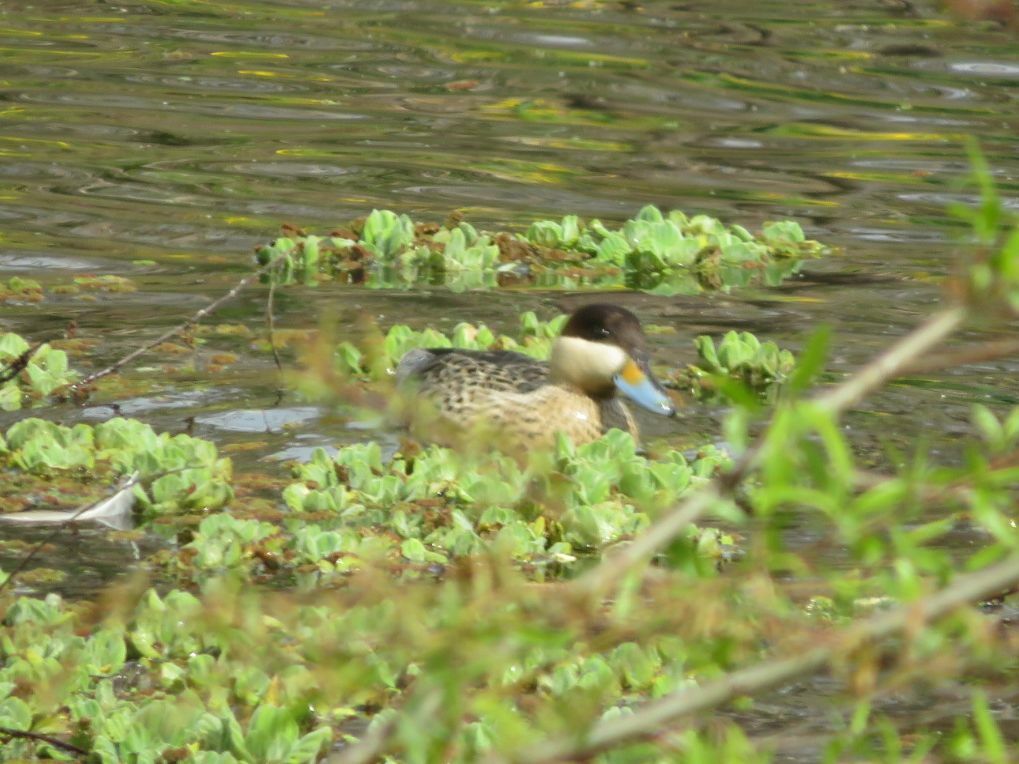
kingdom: Animalia
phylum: Chordata
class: Aves
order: Anseriformes
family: Anatidae
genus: Spatula
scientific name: Spatula versicolor
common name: Silver teal
